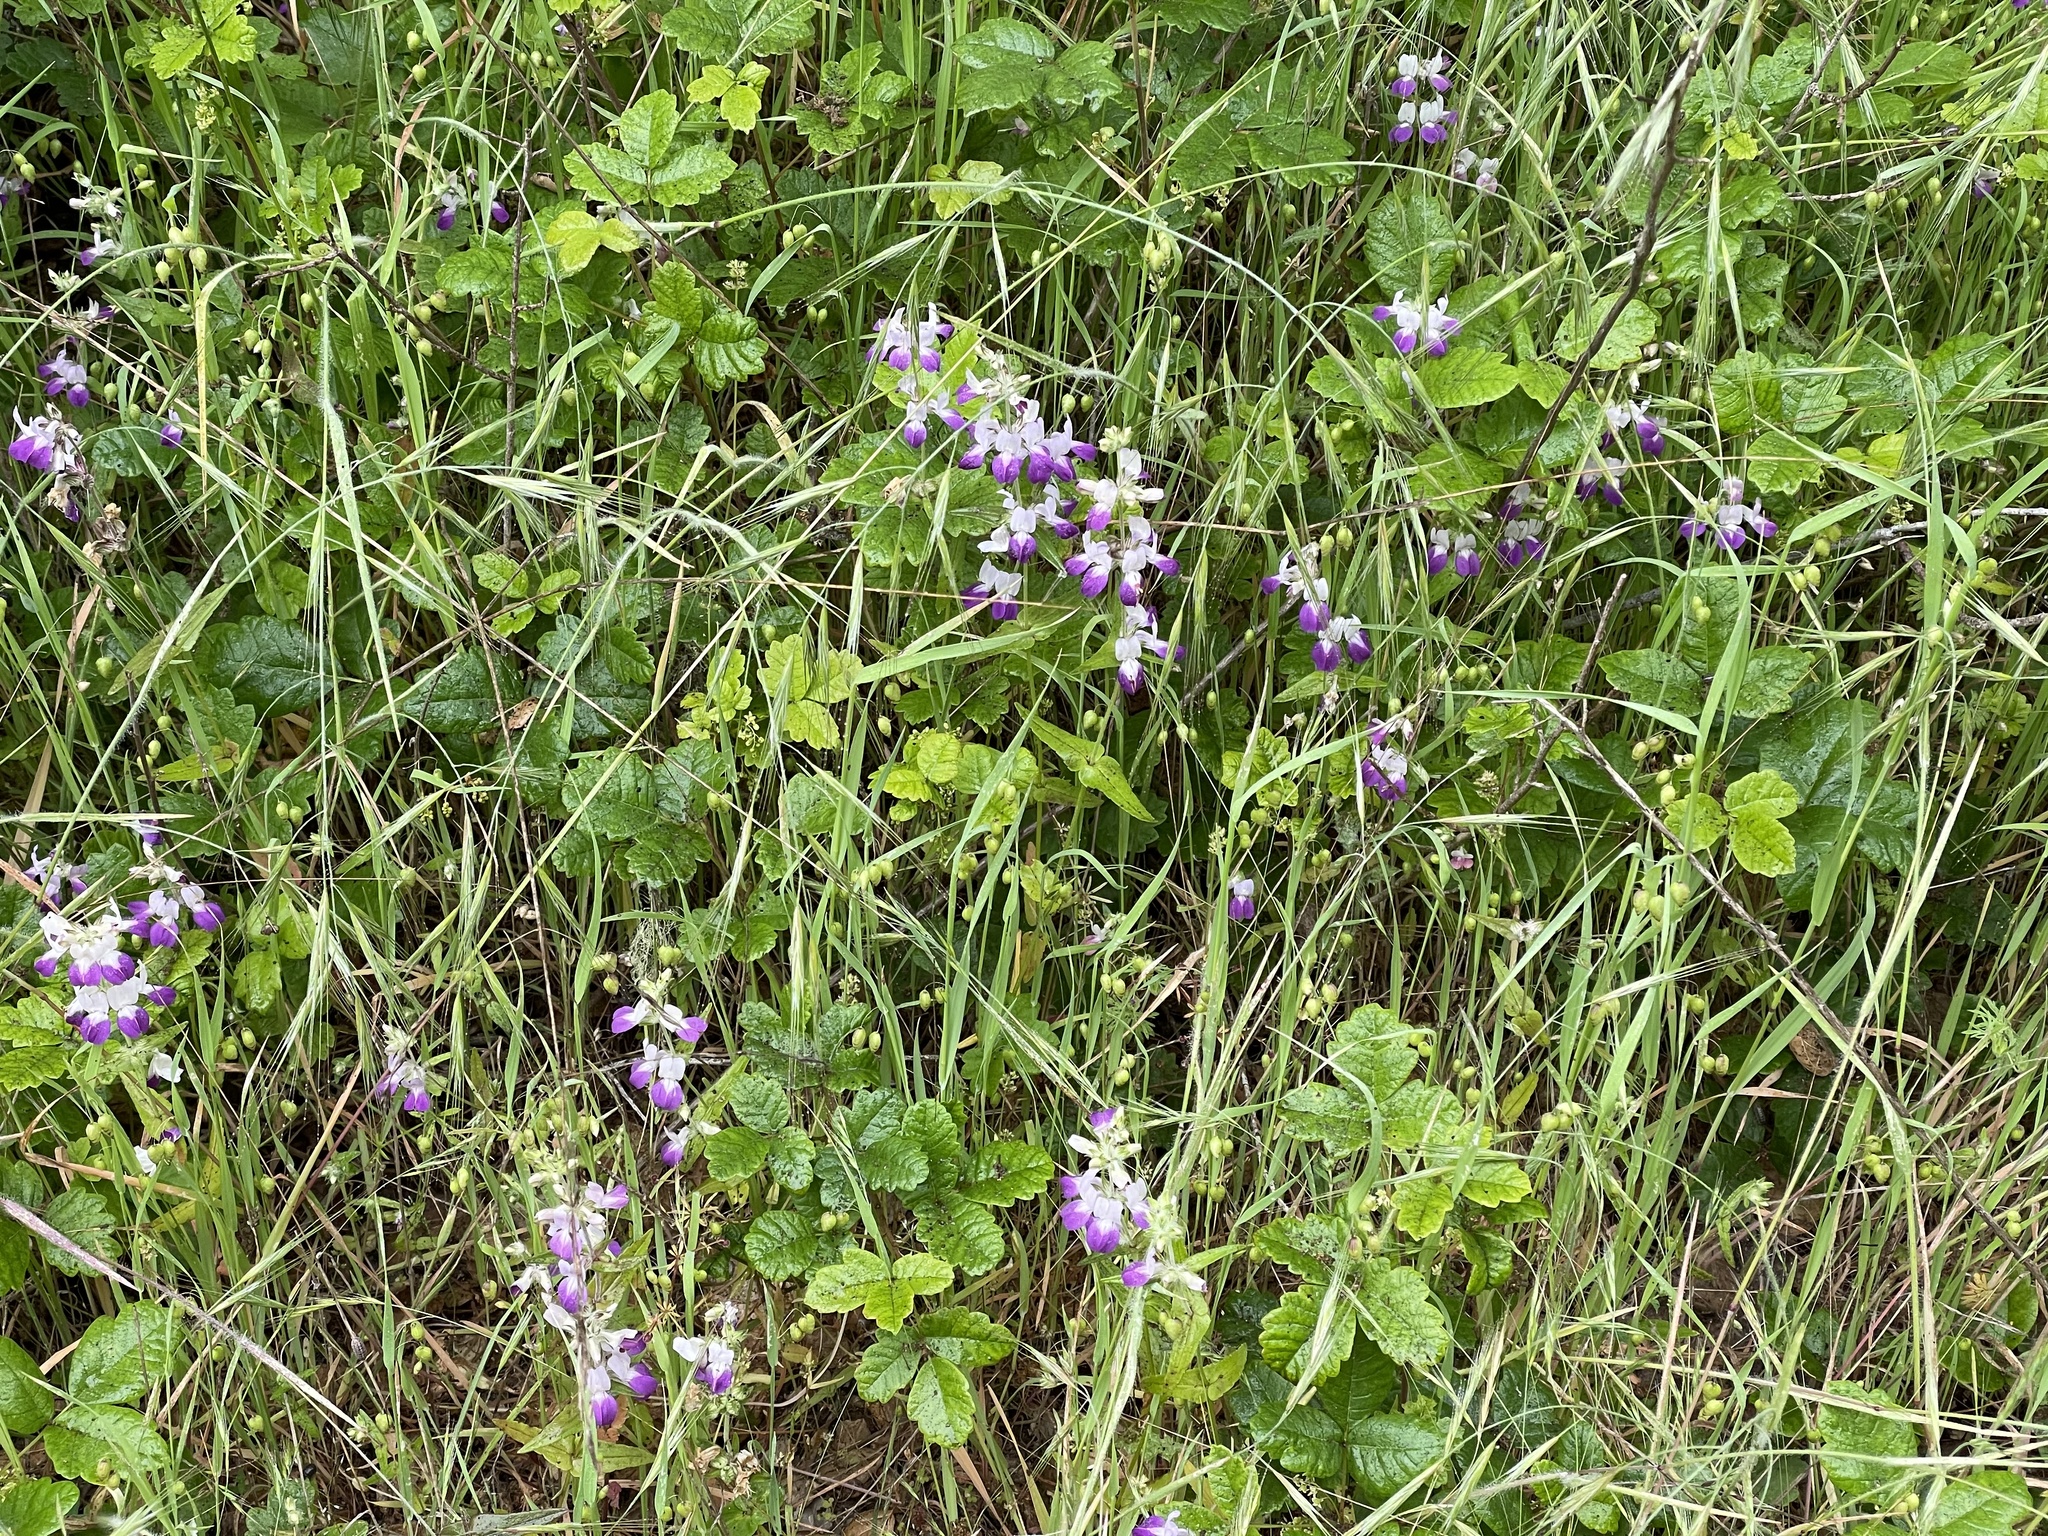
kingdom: Plantae
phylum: Tracheophyta
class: Magnoliopsida
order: Lamiales
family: Plantaginaceae
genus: Collinsia
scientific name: Collinsia heterophylla
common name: Chinese-houses
